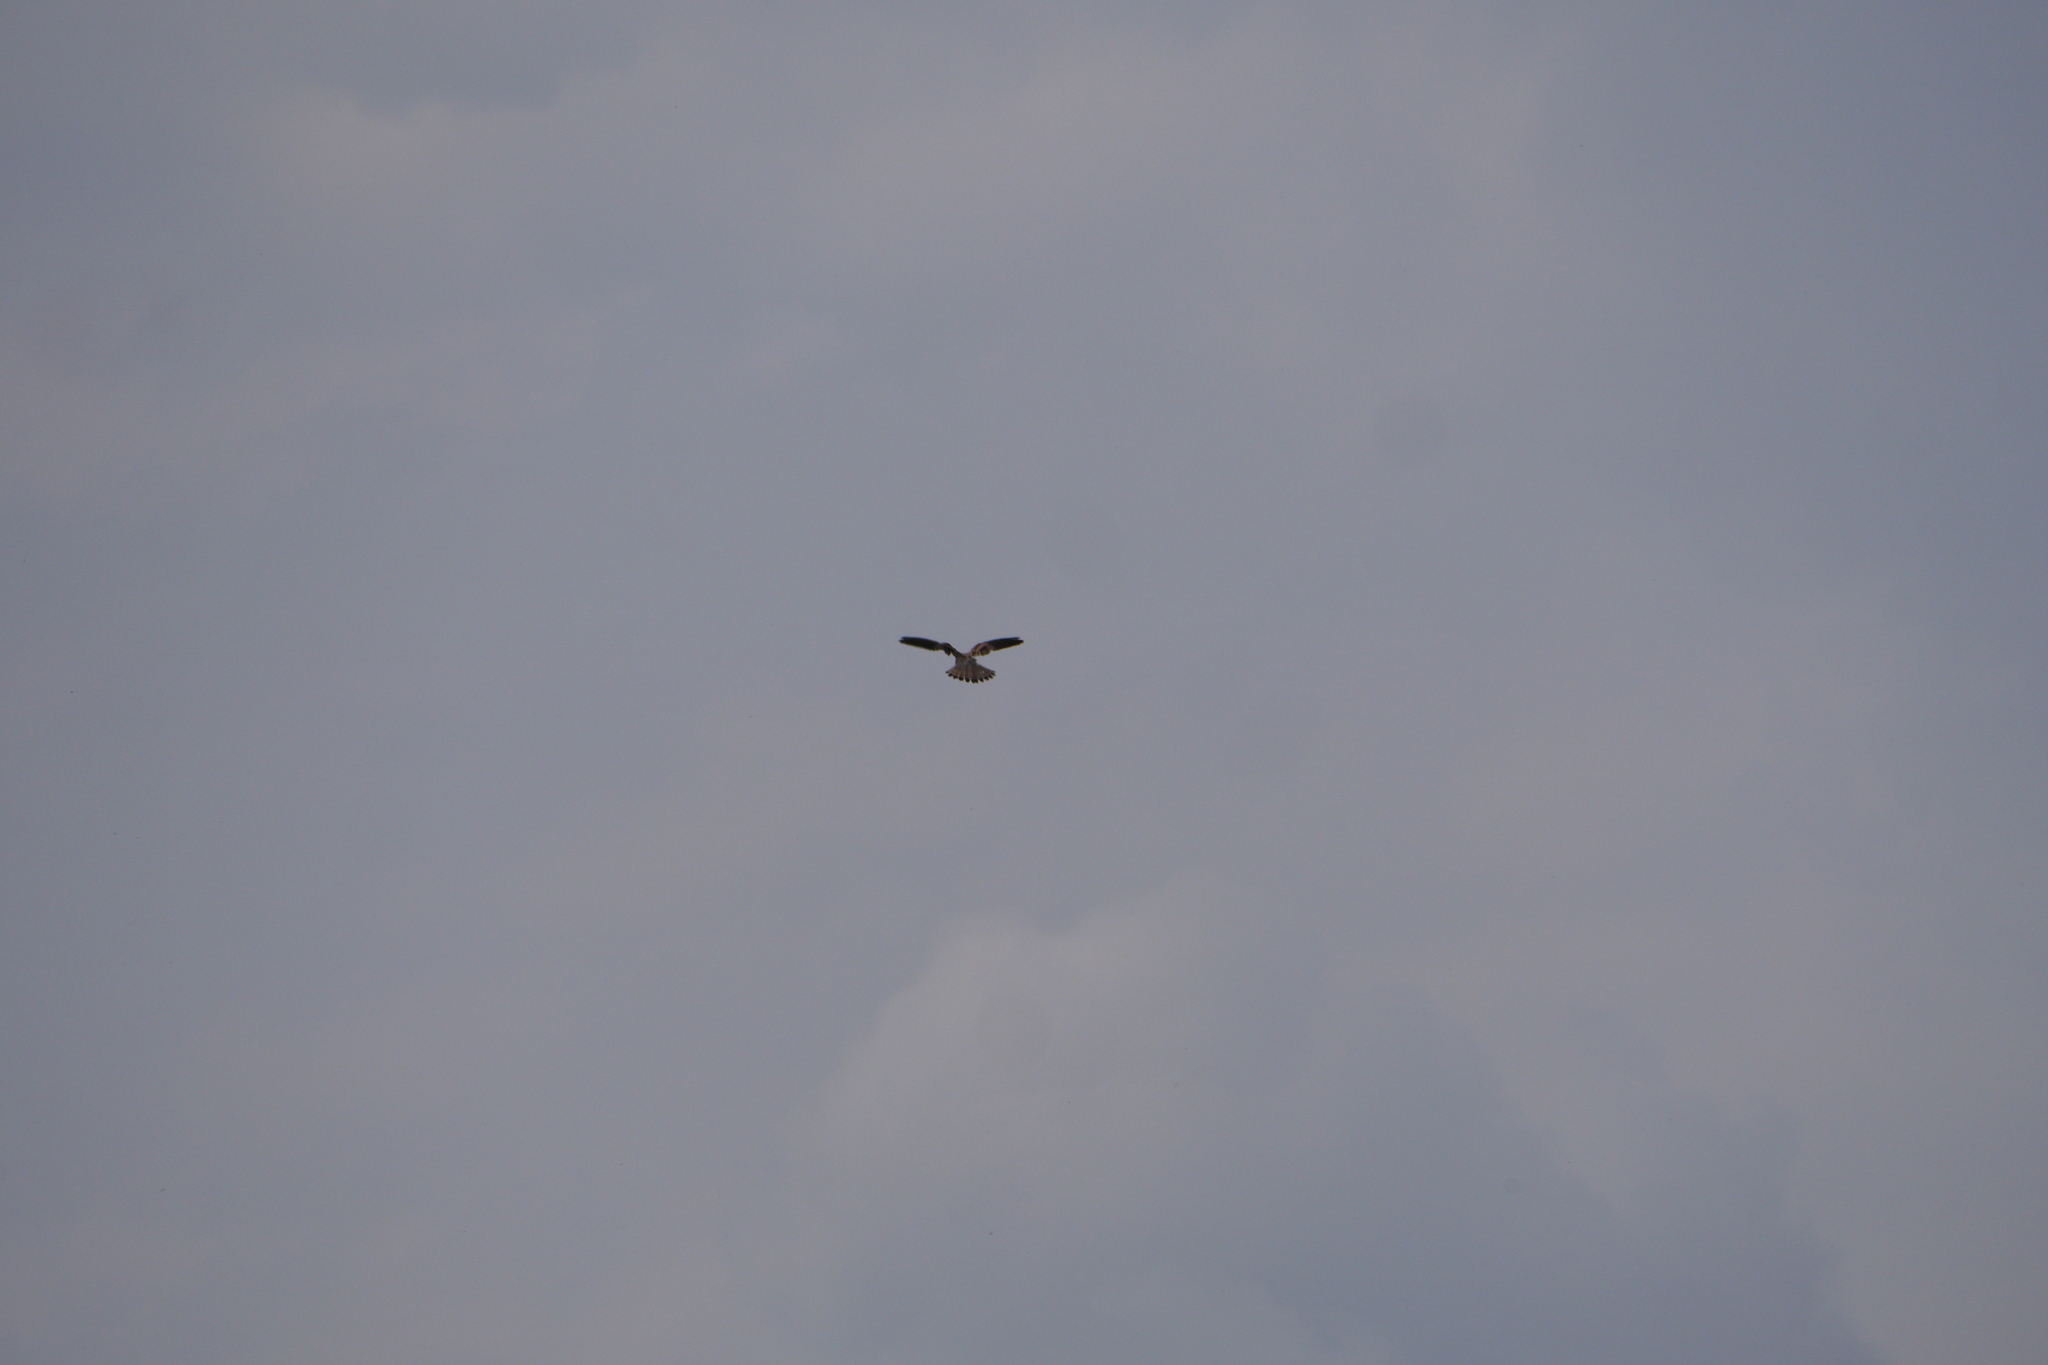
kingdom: Animalia
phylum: Chordata
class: Aves
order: Falconiformes
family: Falconidae
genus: Falco
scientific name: Falco tinnunculus
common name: Common kestrel
